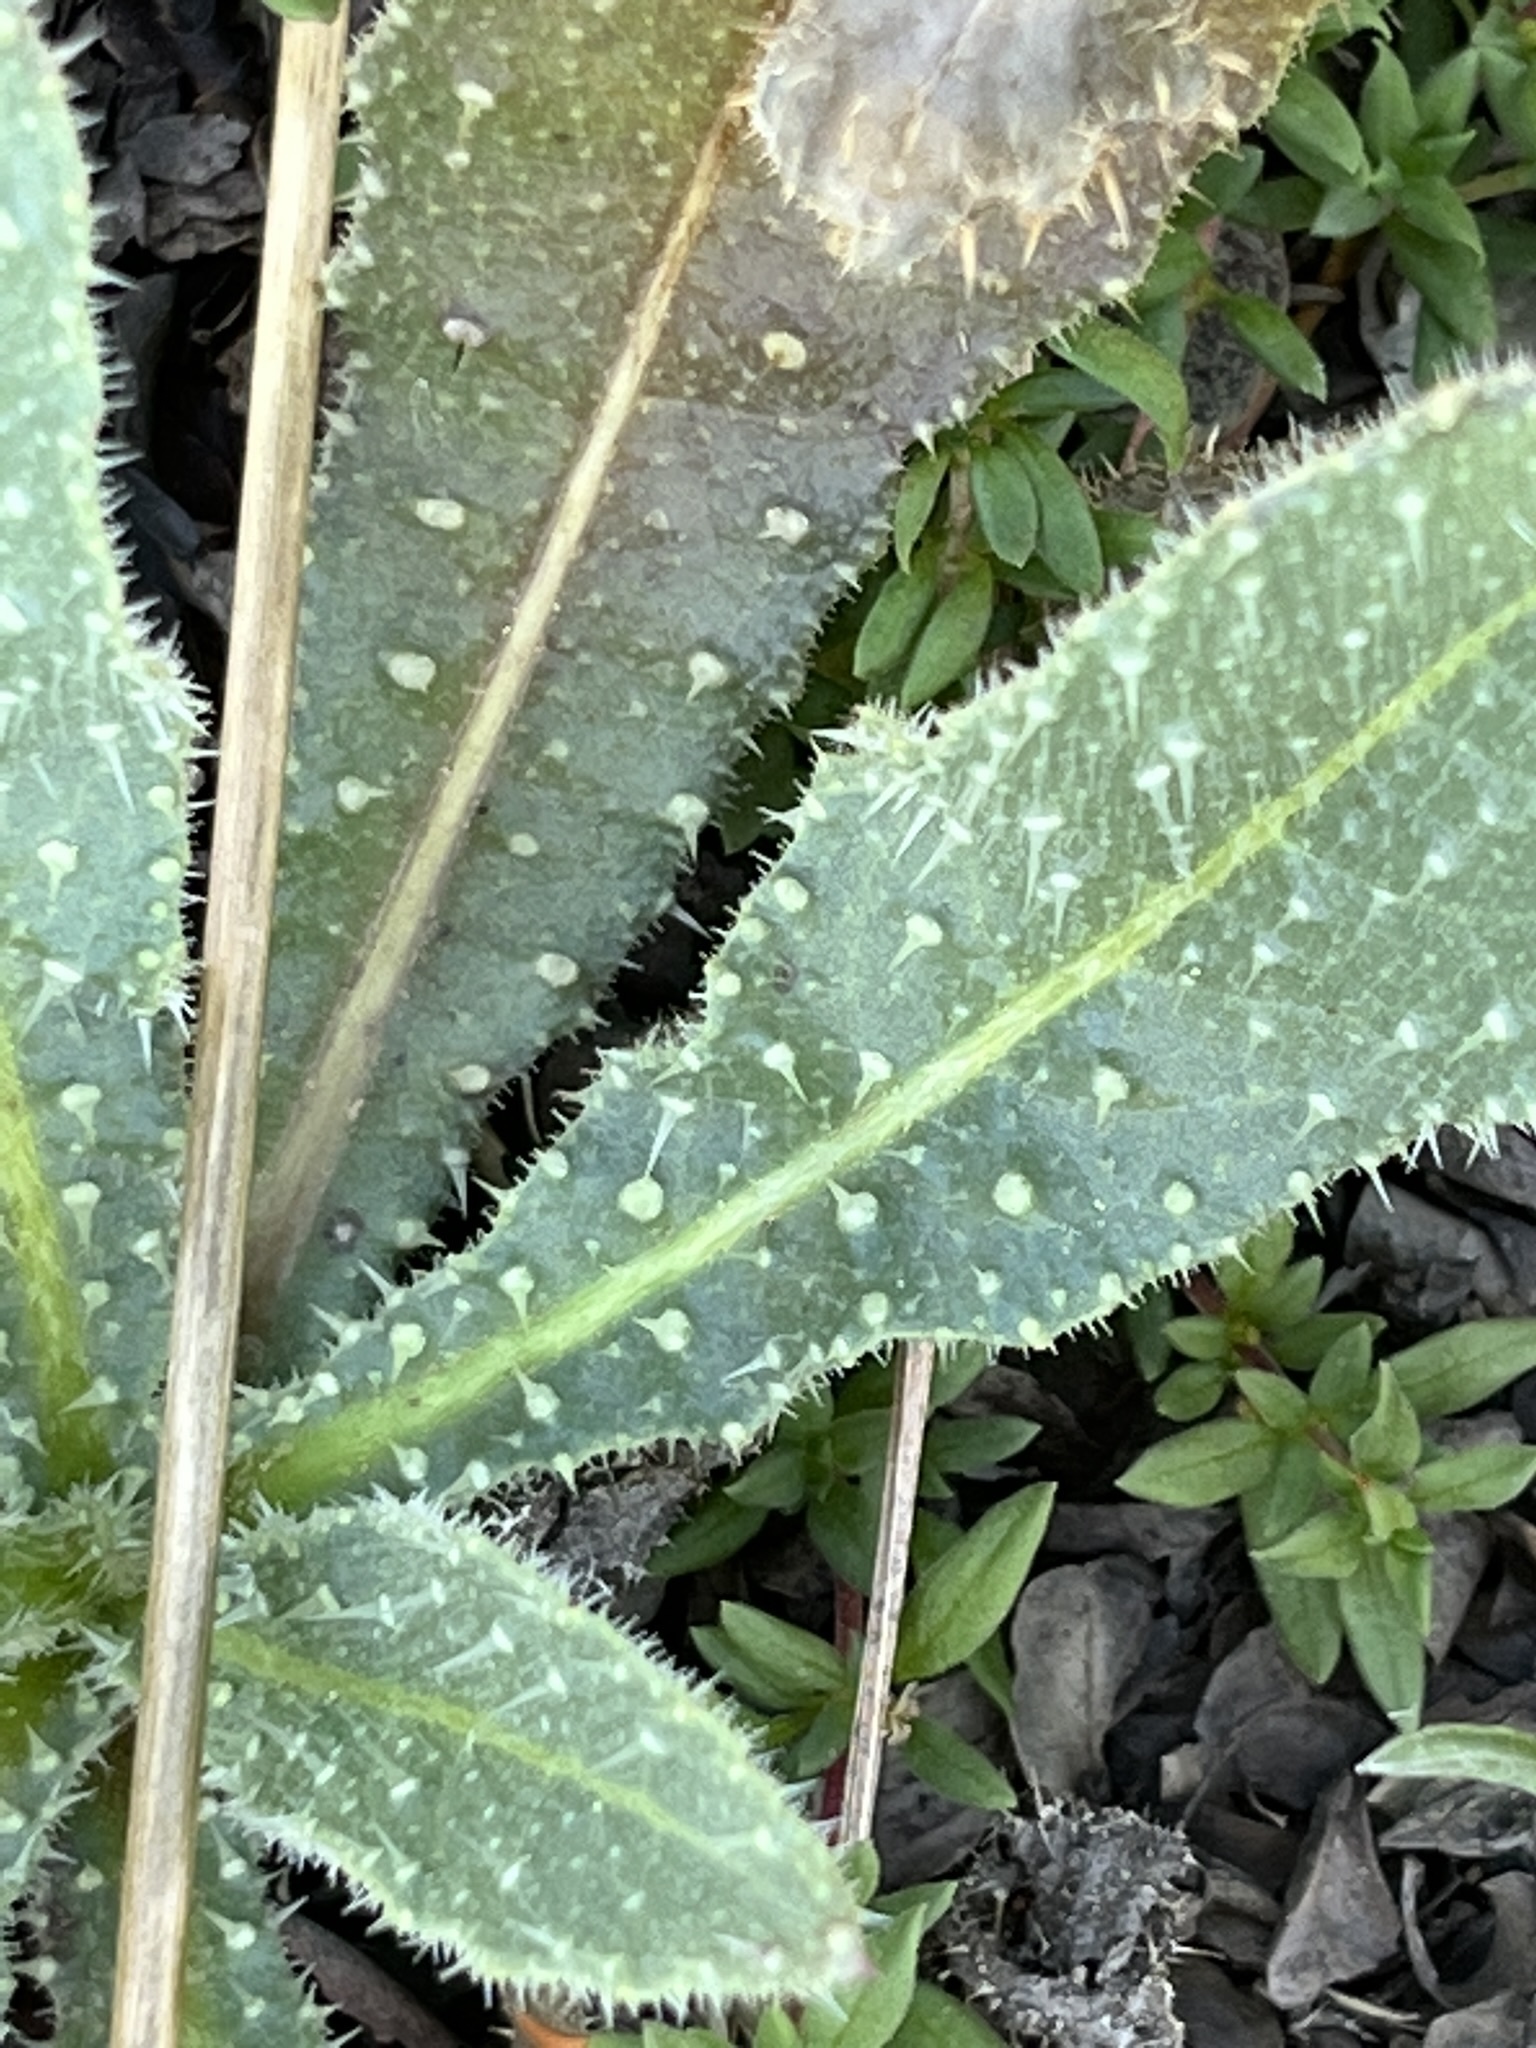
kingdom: Plantae
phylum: Tracheophyta
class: Magnoliopsida
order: Asterales
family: Asteraceae
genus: Helminthotheca
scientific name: Helminthotheca echioides
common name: Ox-tongue
